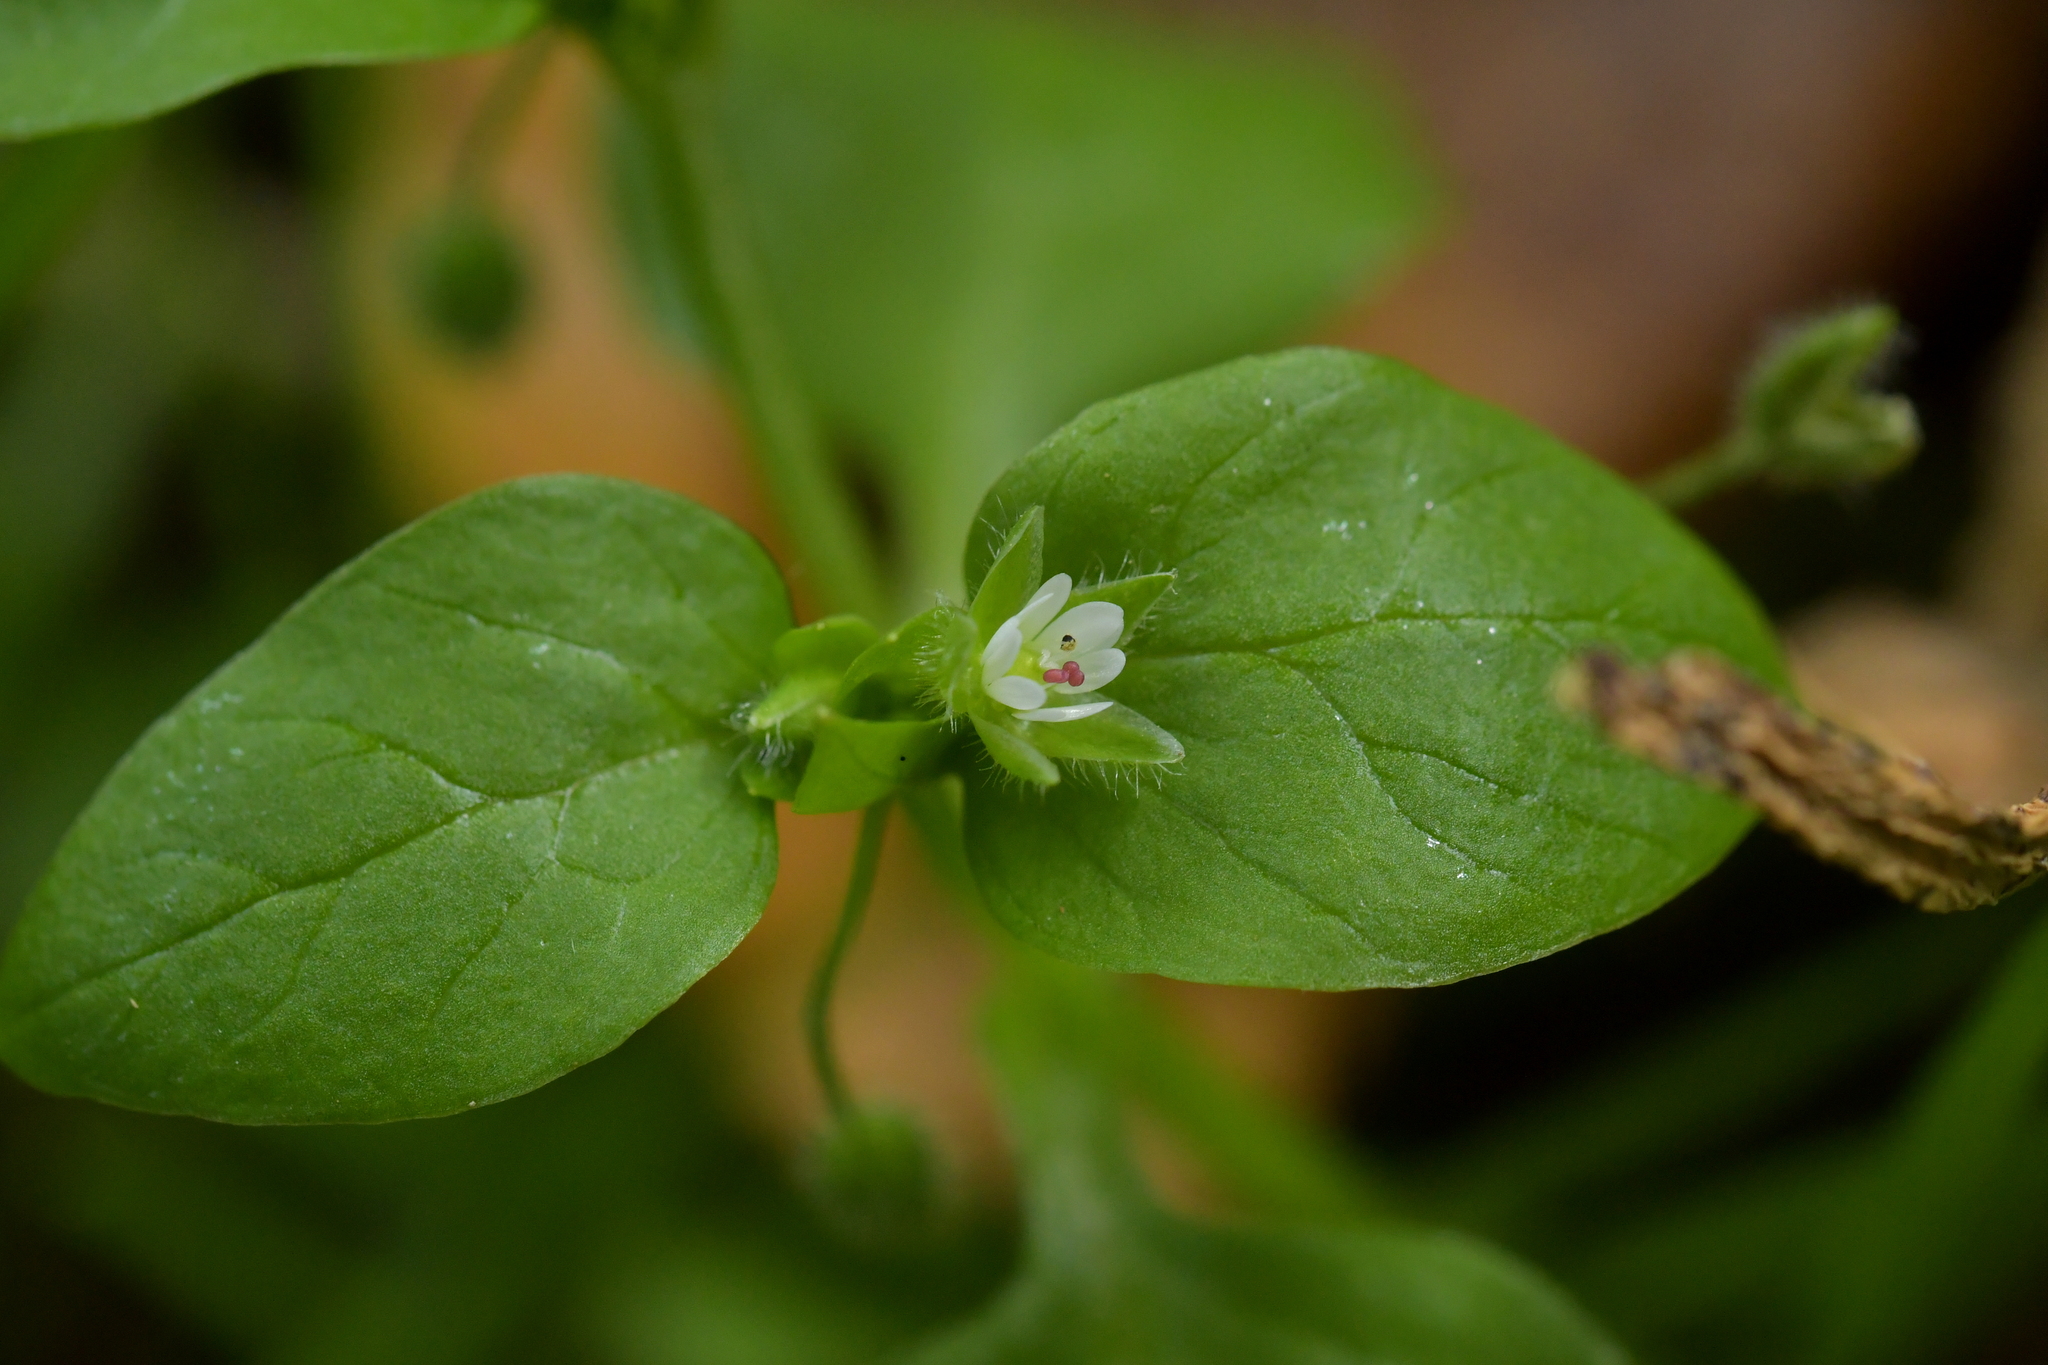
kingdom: Plantae
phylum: Tracheophyta
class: Magnoliopsida
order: Caryophyllales
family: Caryophyllaceae
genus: Stellaria
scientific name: Stellaria media
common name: Common chickweed
